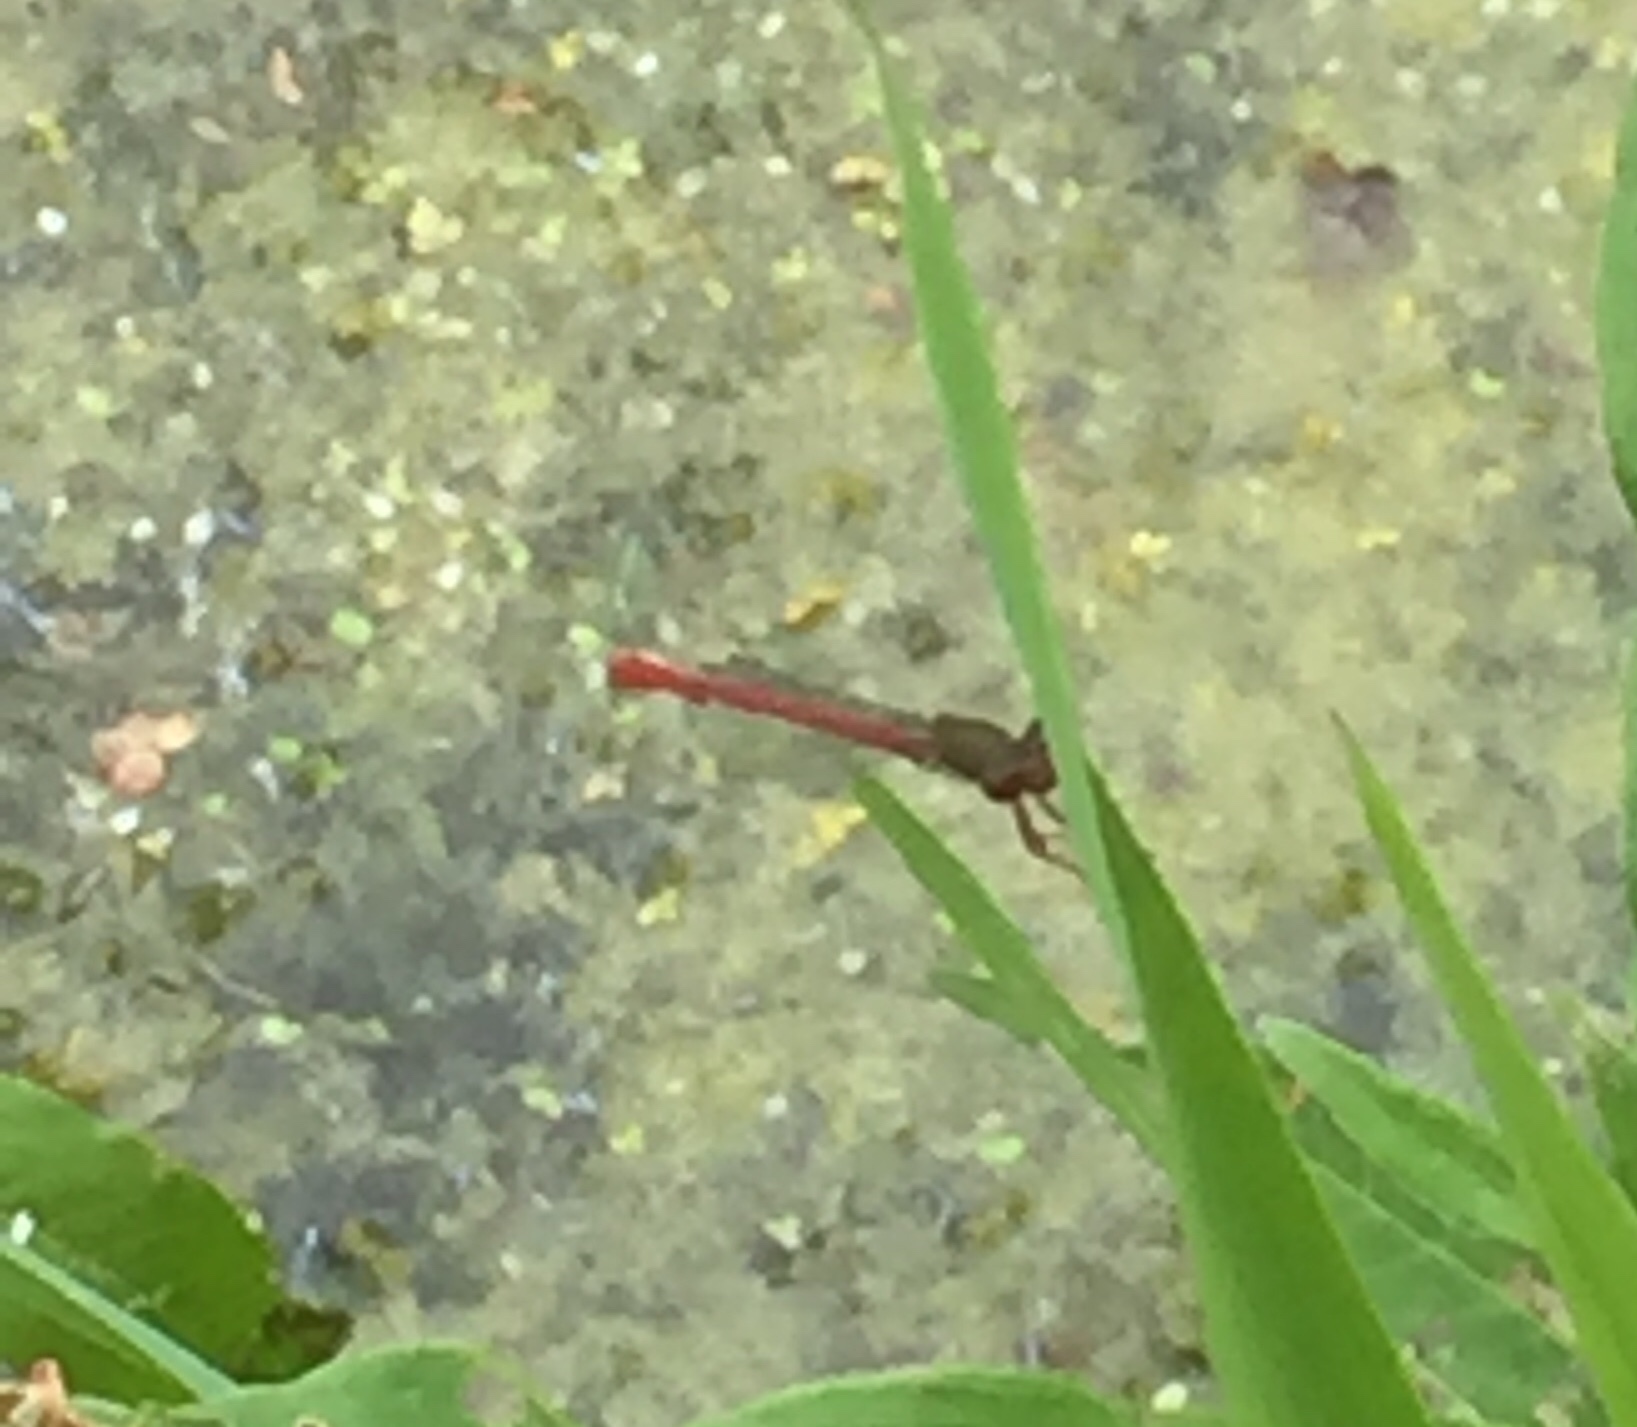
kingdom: Animalia
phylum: Arthropoda
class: Insecta
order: Odonata
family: Coenagrionidae
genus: Ceriagrion
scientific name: Ceriagrion tenellum
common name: Small red damselfly
